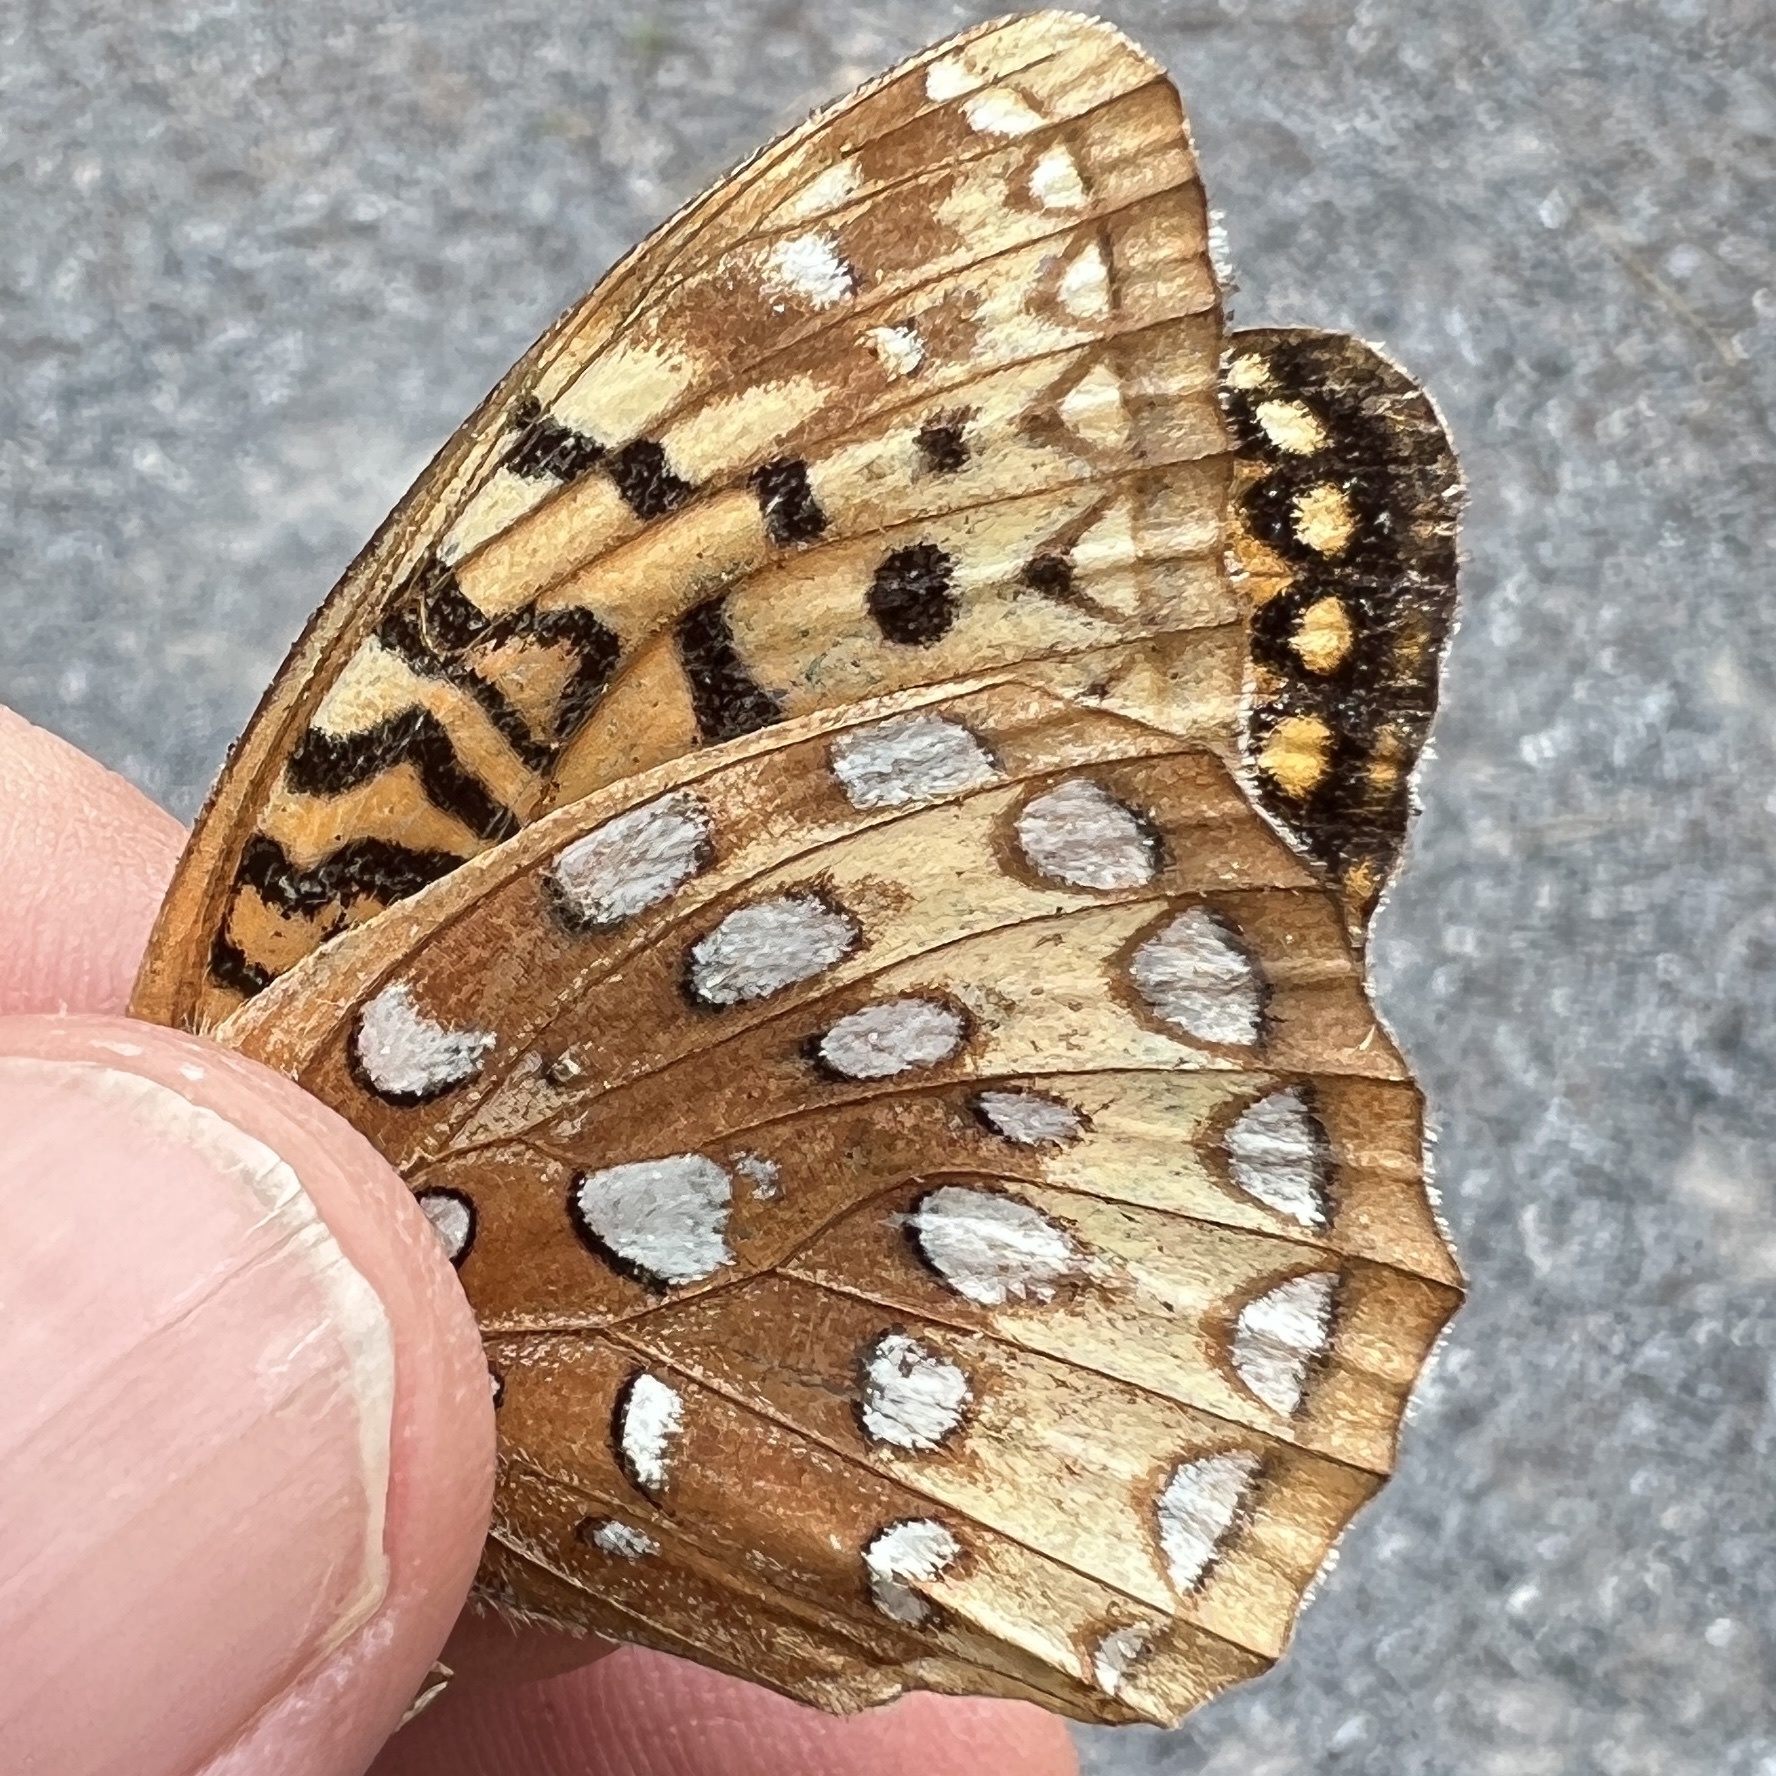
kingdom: Animalia
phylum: Arthropoda
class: Insecta
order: Lepidoptera
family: Nymphalidae
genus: Speyeria
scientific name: Speyeria cybele
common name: Great spangled fritillary
